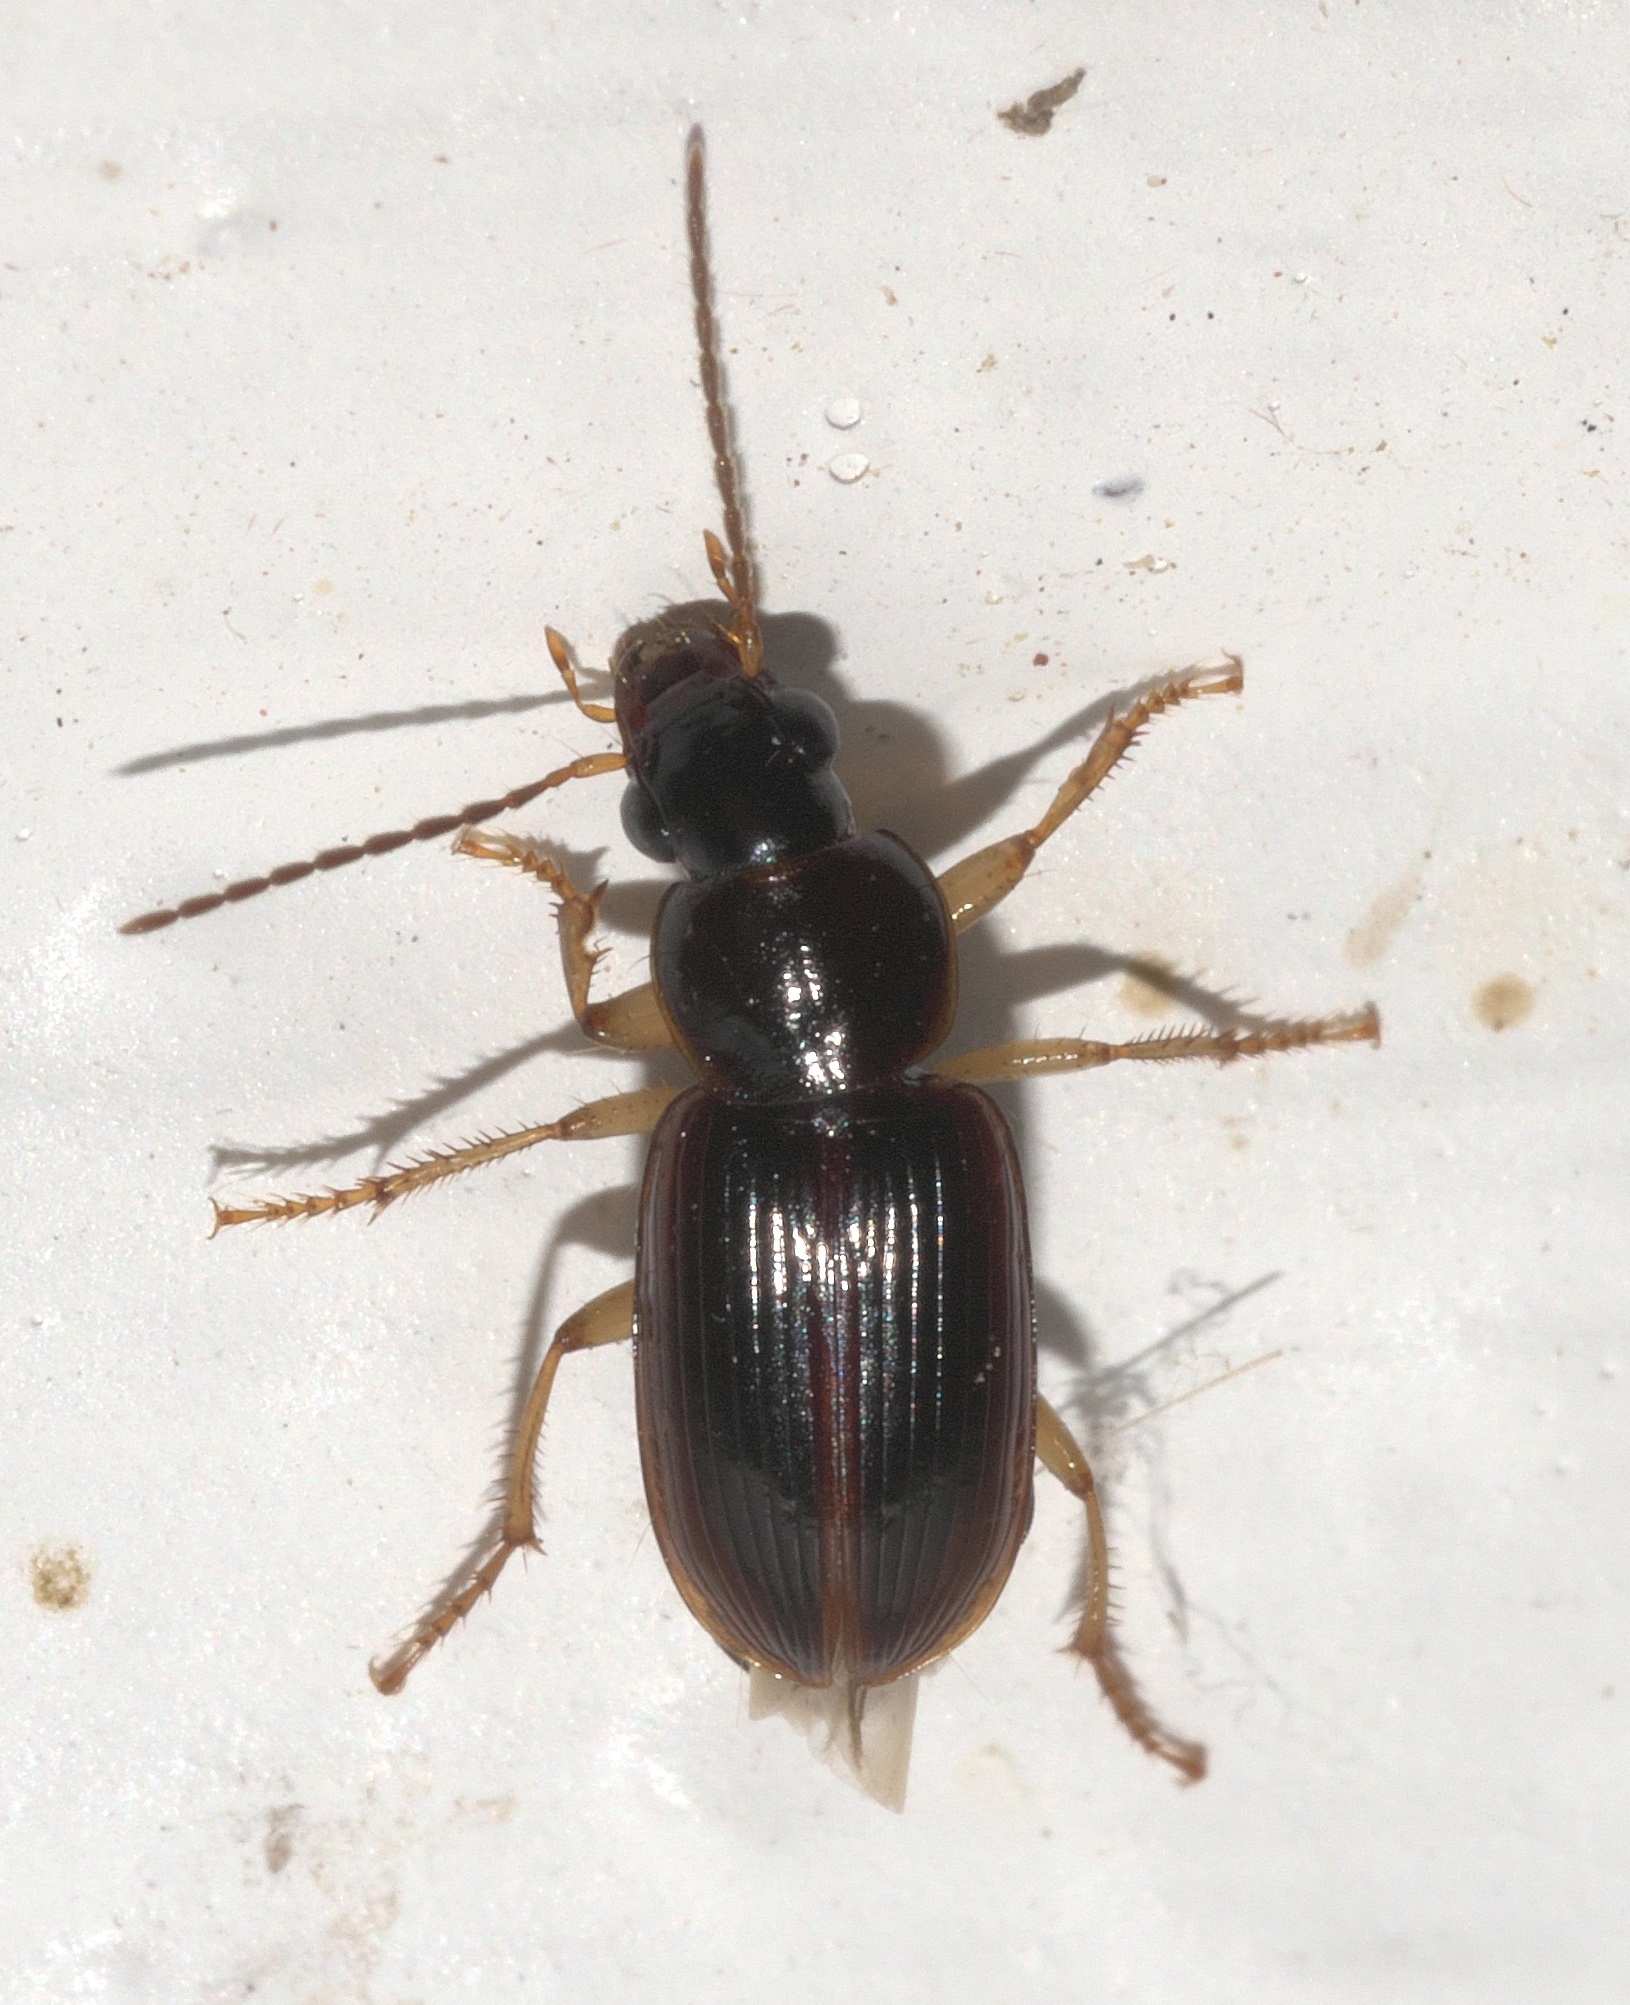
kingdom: Animalia
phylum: Arthropoda
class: Insecta
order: Coleoptera
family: Carabidae
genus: Stenolophus
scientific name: Stenolophus ochropezus
